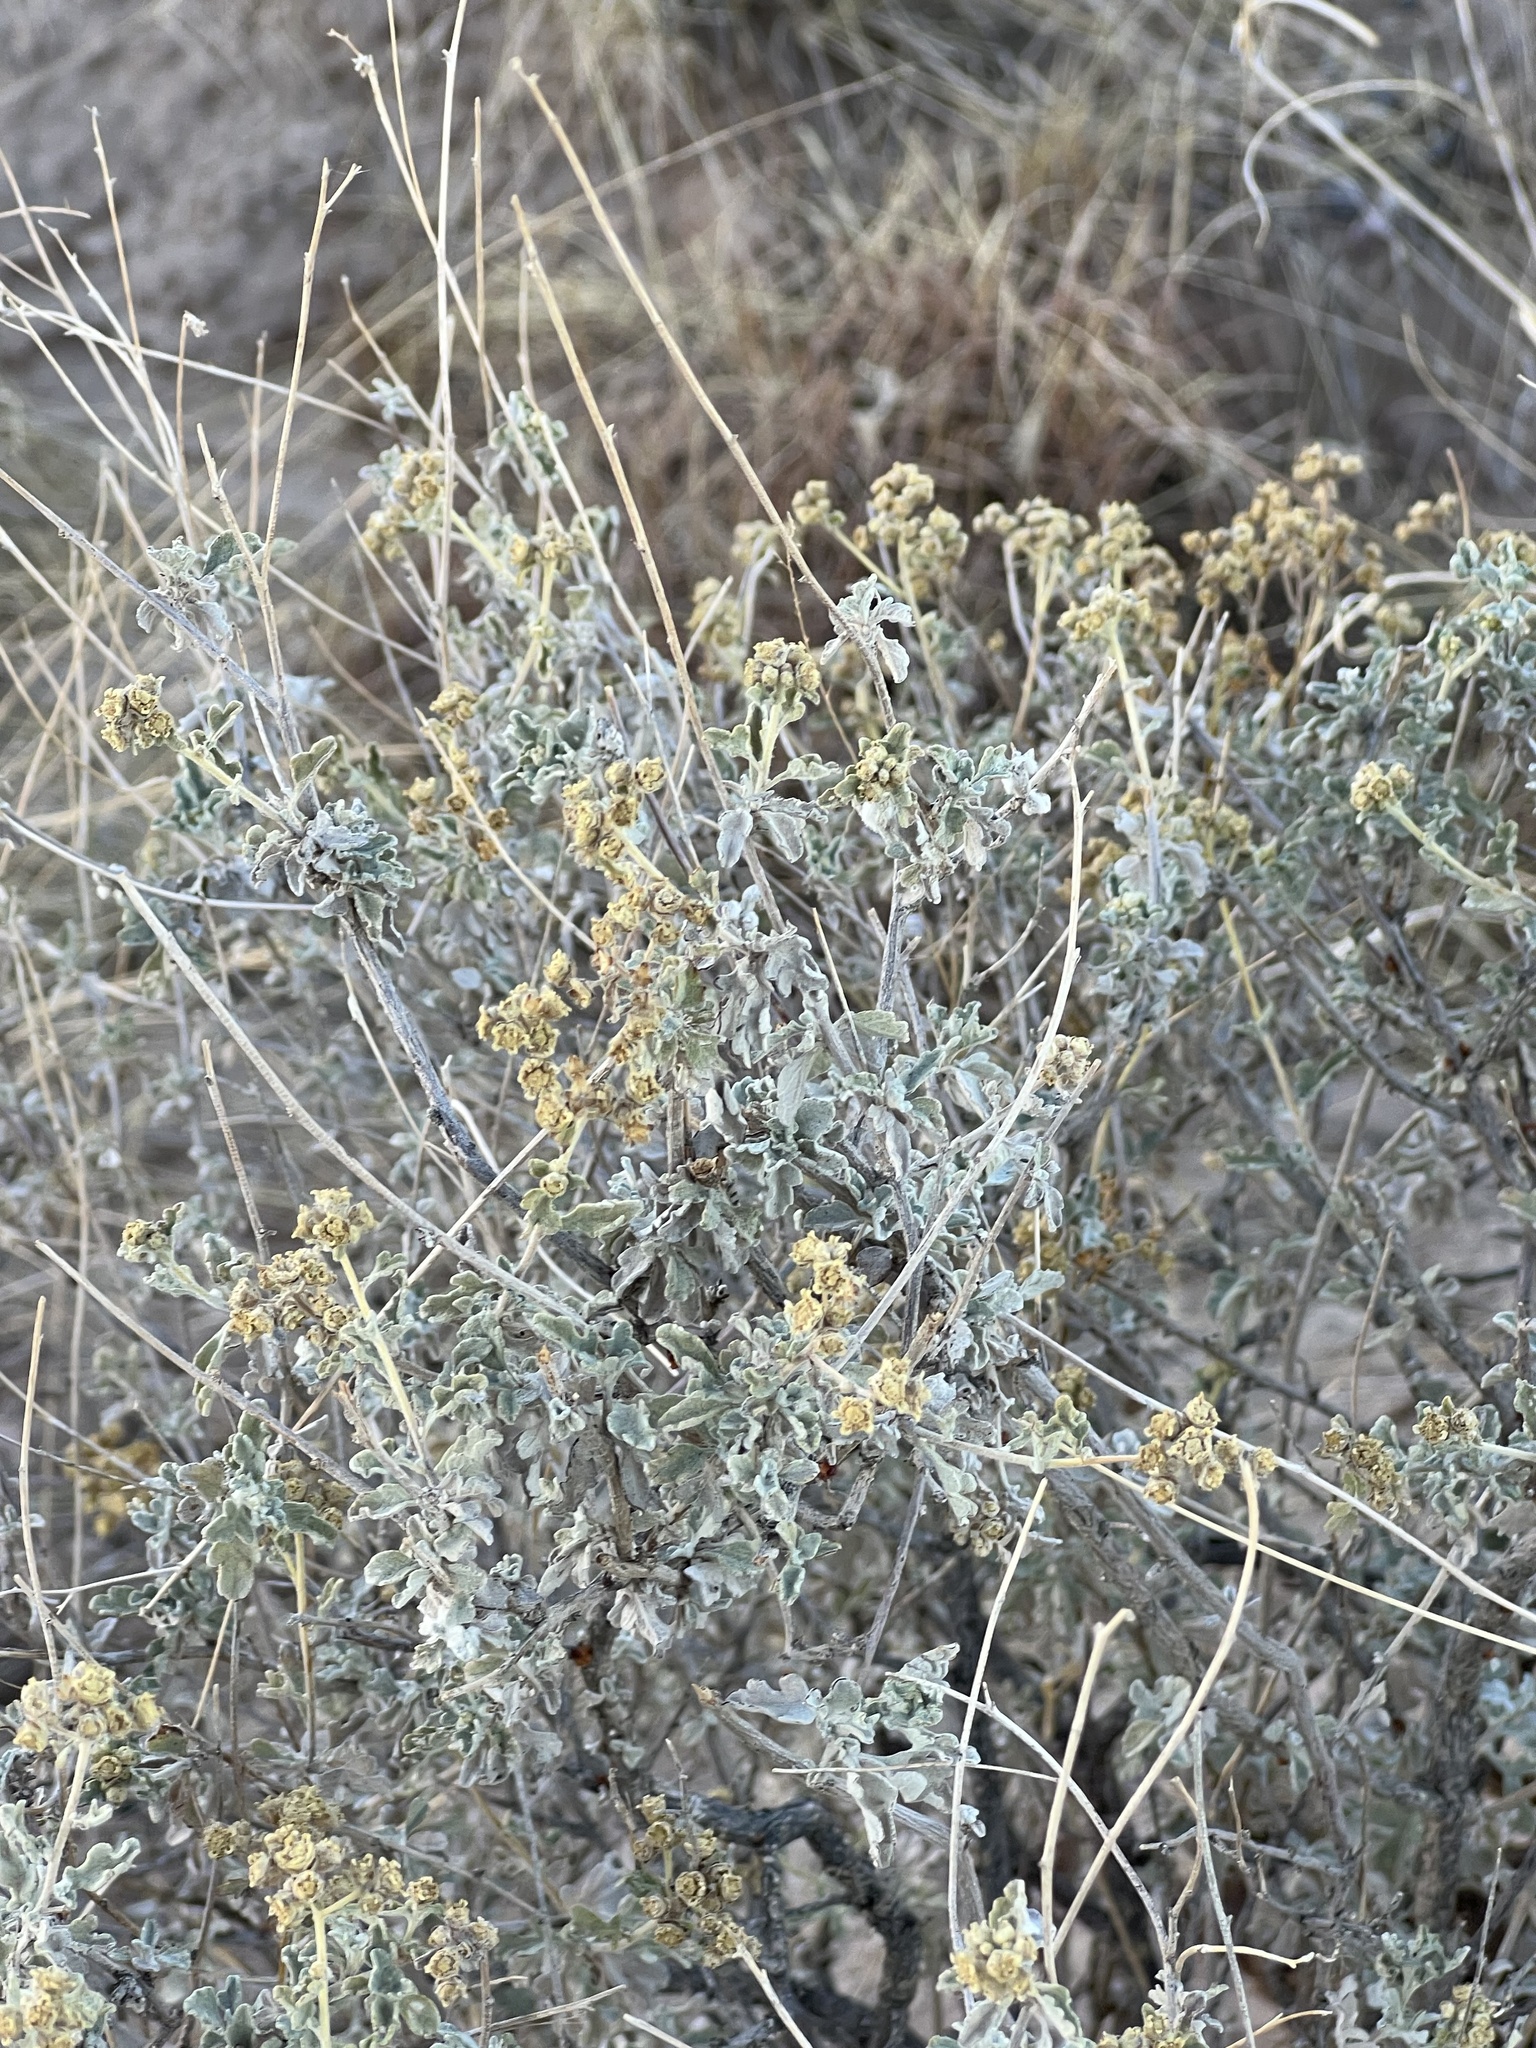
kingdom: Plantae
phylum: Tracheophyta
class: Magnoliopsida
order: Asterales
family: Asteraceae
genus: Parthenium
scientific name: Parthenium incanum
